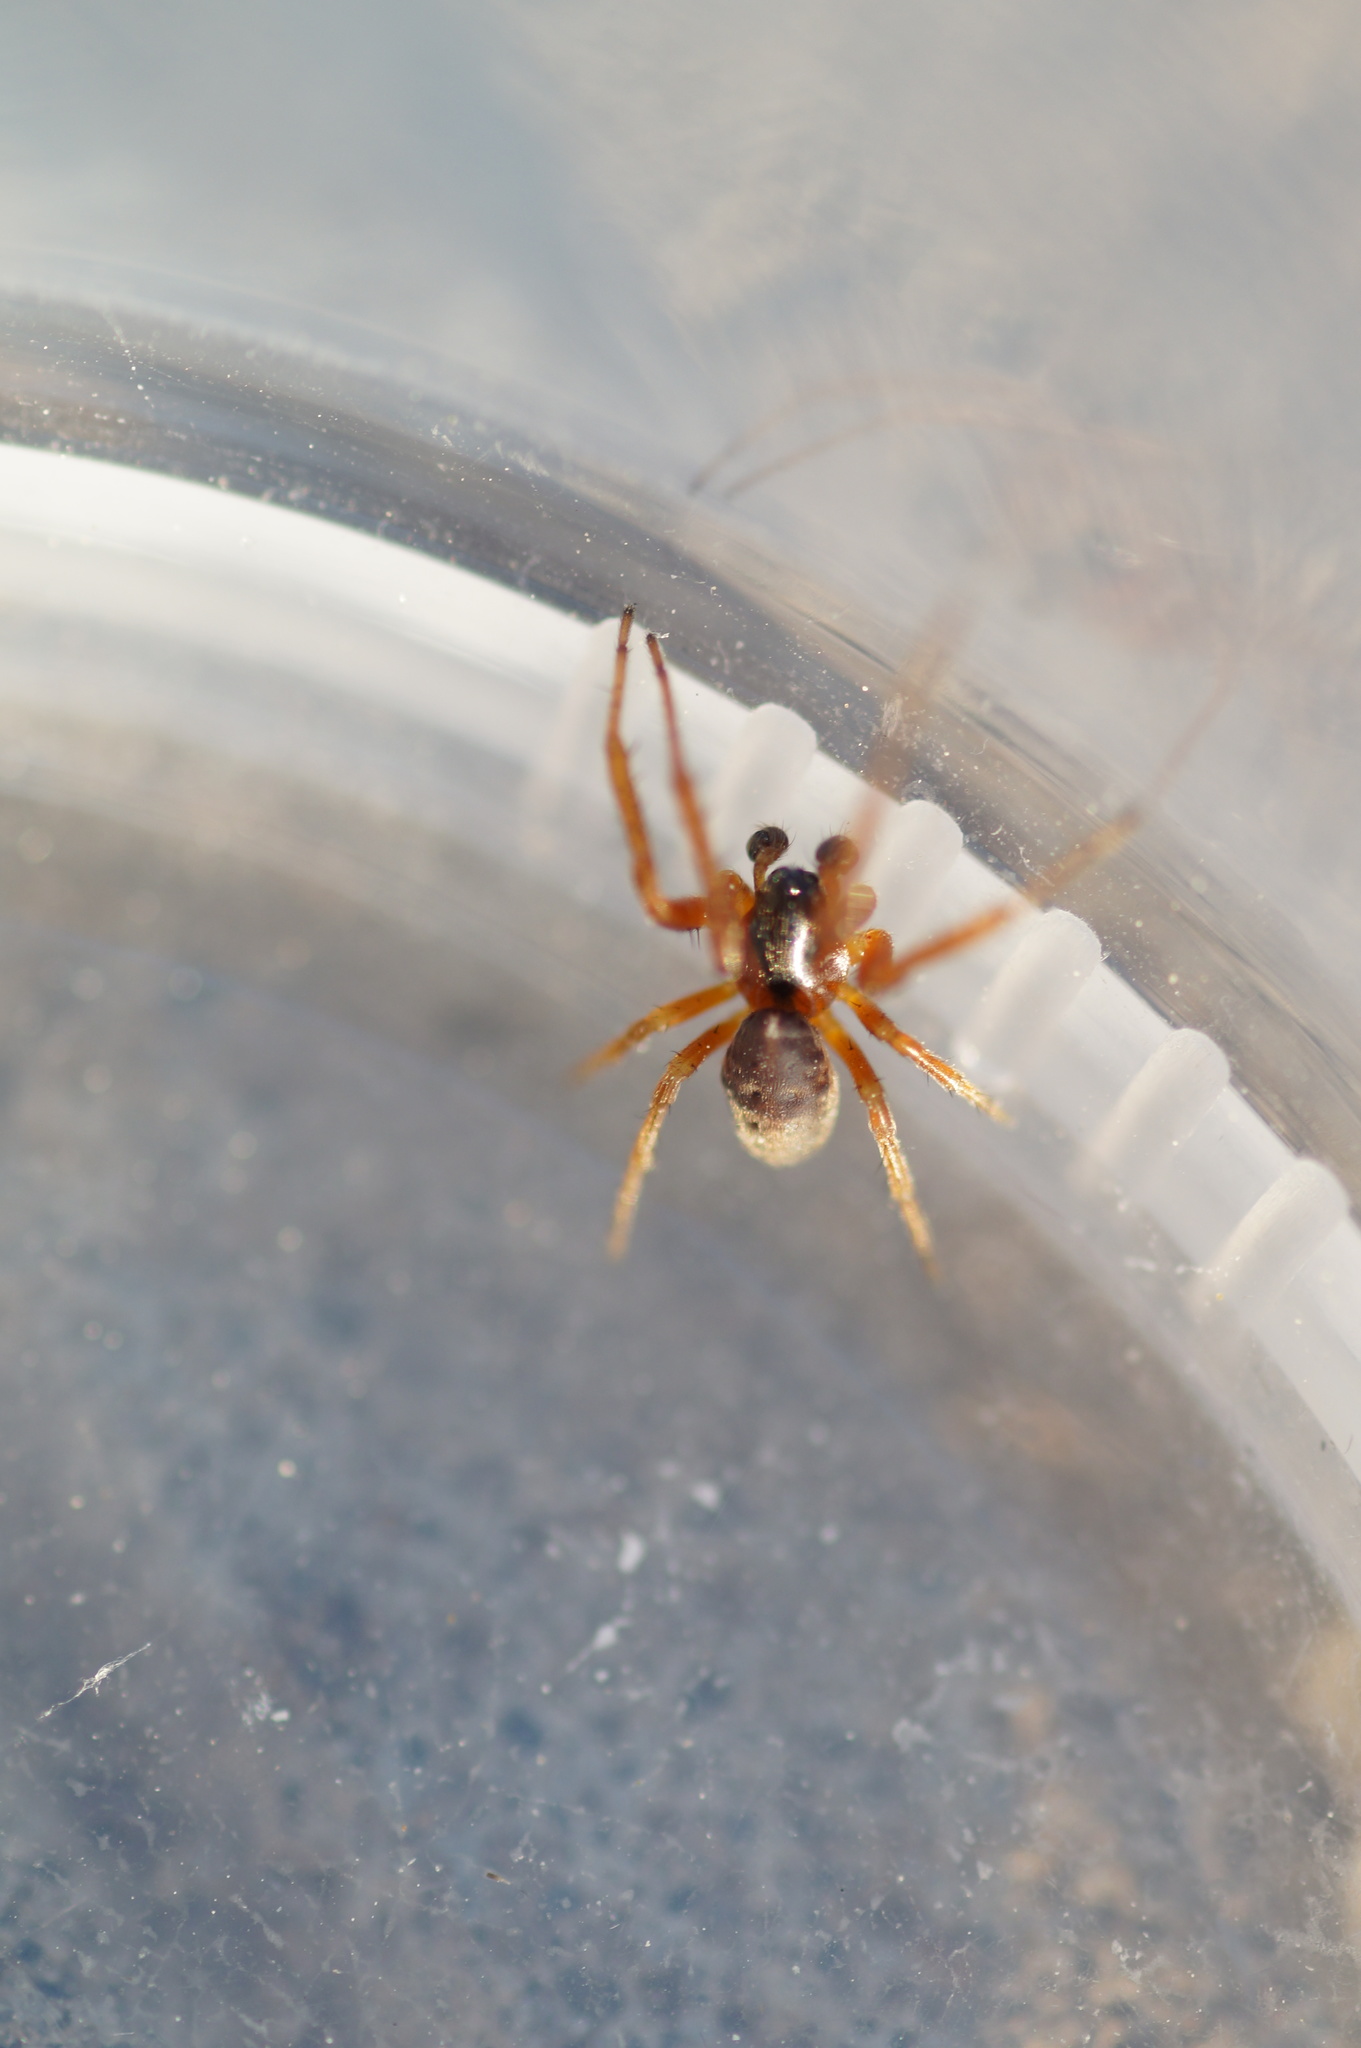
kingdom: Animalia
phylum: Arthropoda
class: Arachnida
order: Araneae
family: Araneidae
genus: Singa
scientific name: Singa nitidula
